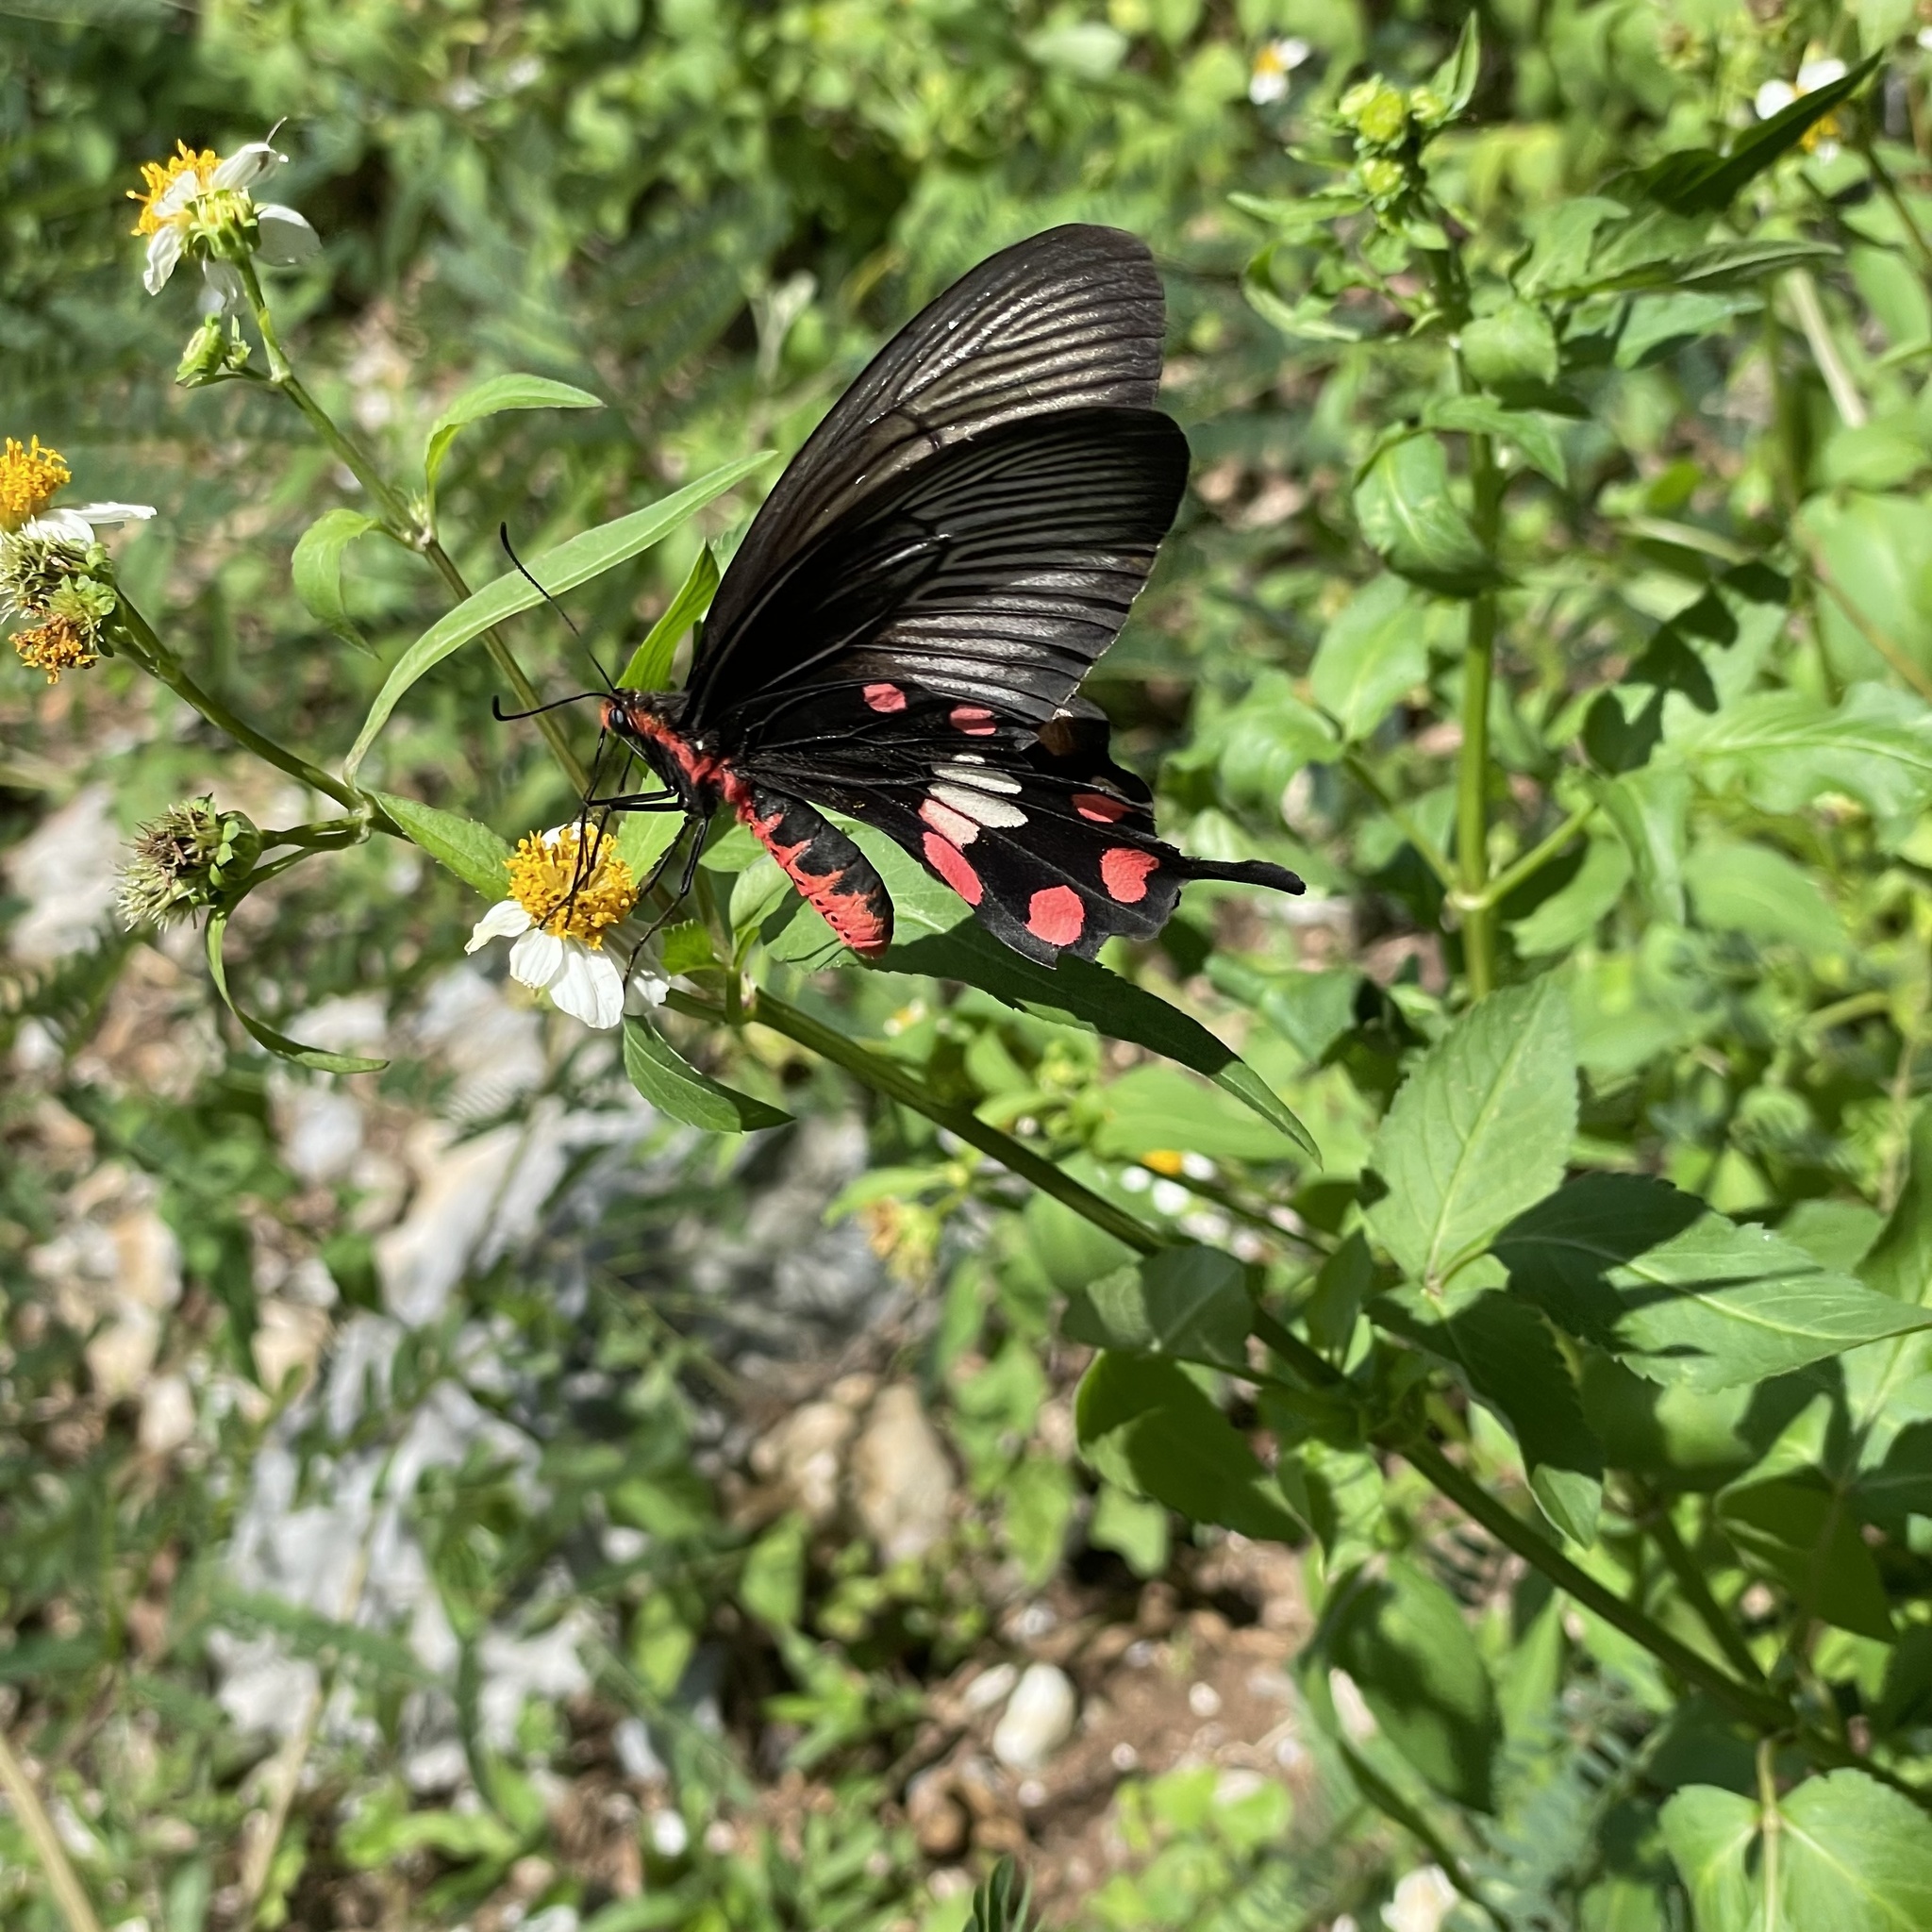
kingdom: Animalia
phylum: Arthropoda
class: Insecta
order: Lepidoptera
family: Papilionidae
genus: Pachliopta
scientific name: Pachliopta aristolochiae
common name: Common rose
